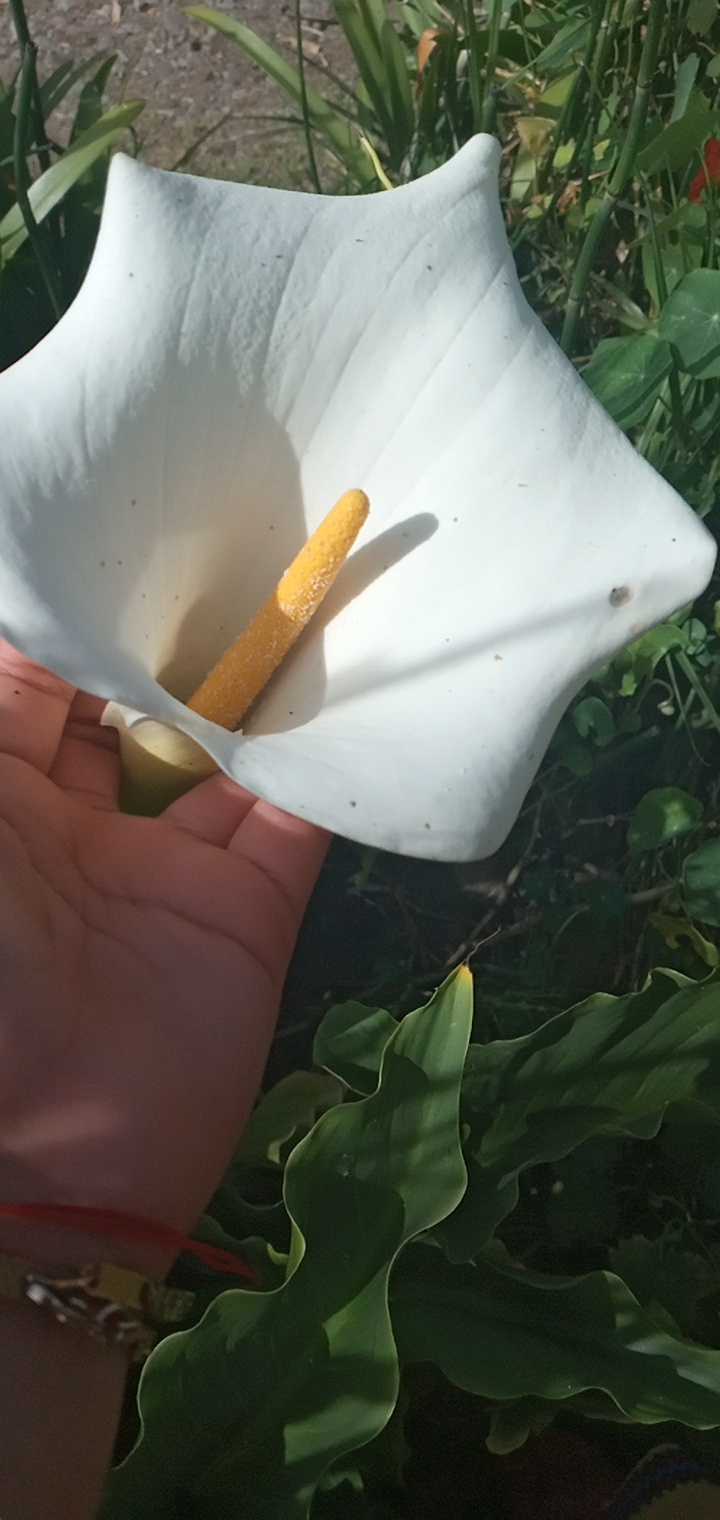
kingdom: Plantae
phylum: Tracheophyta
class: Liliopsida
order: Alismatales
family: Araceae
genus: Zantedeschia
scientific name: Zantedeschia aethiopica
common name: Altar-lily
